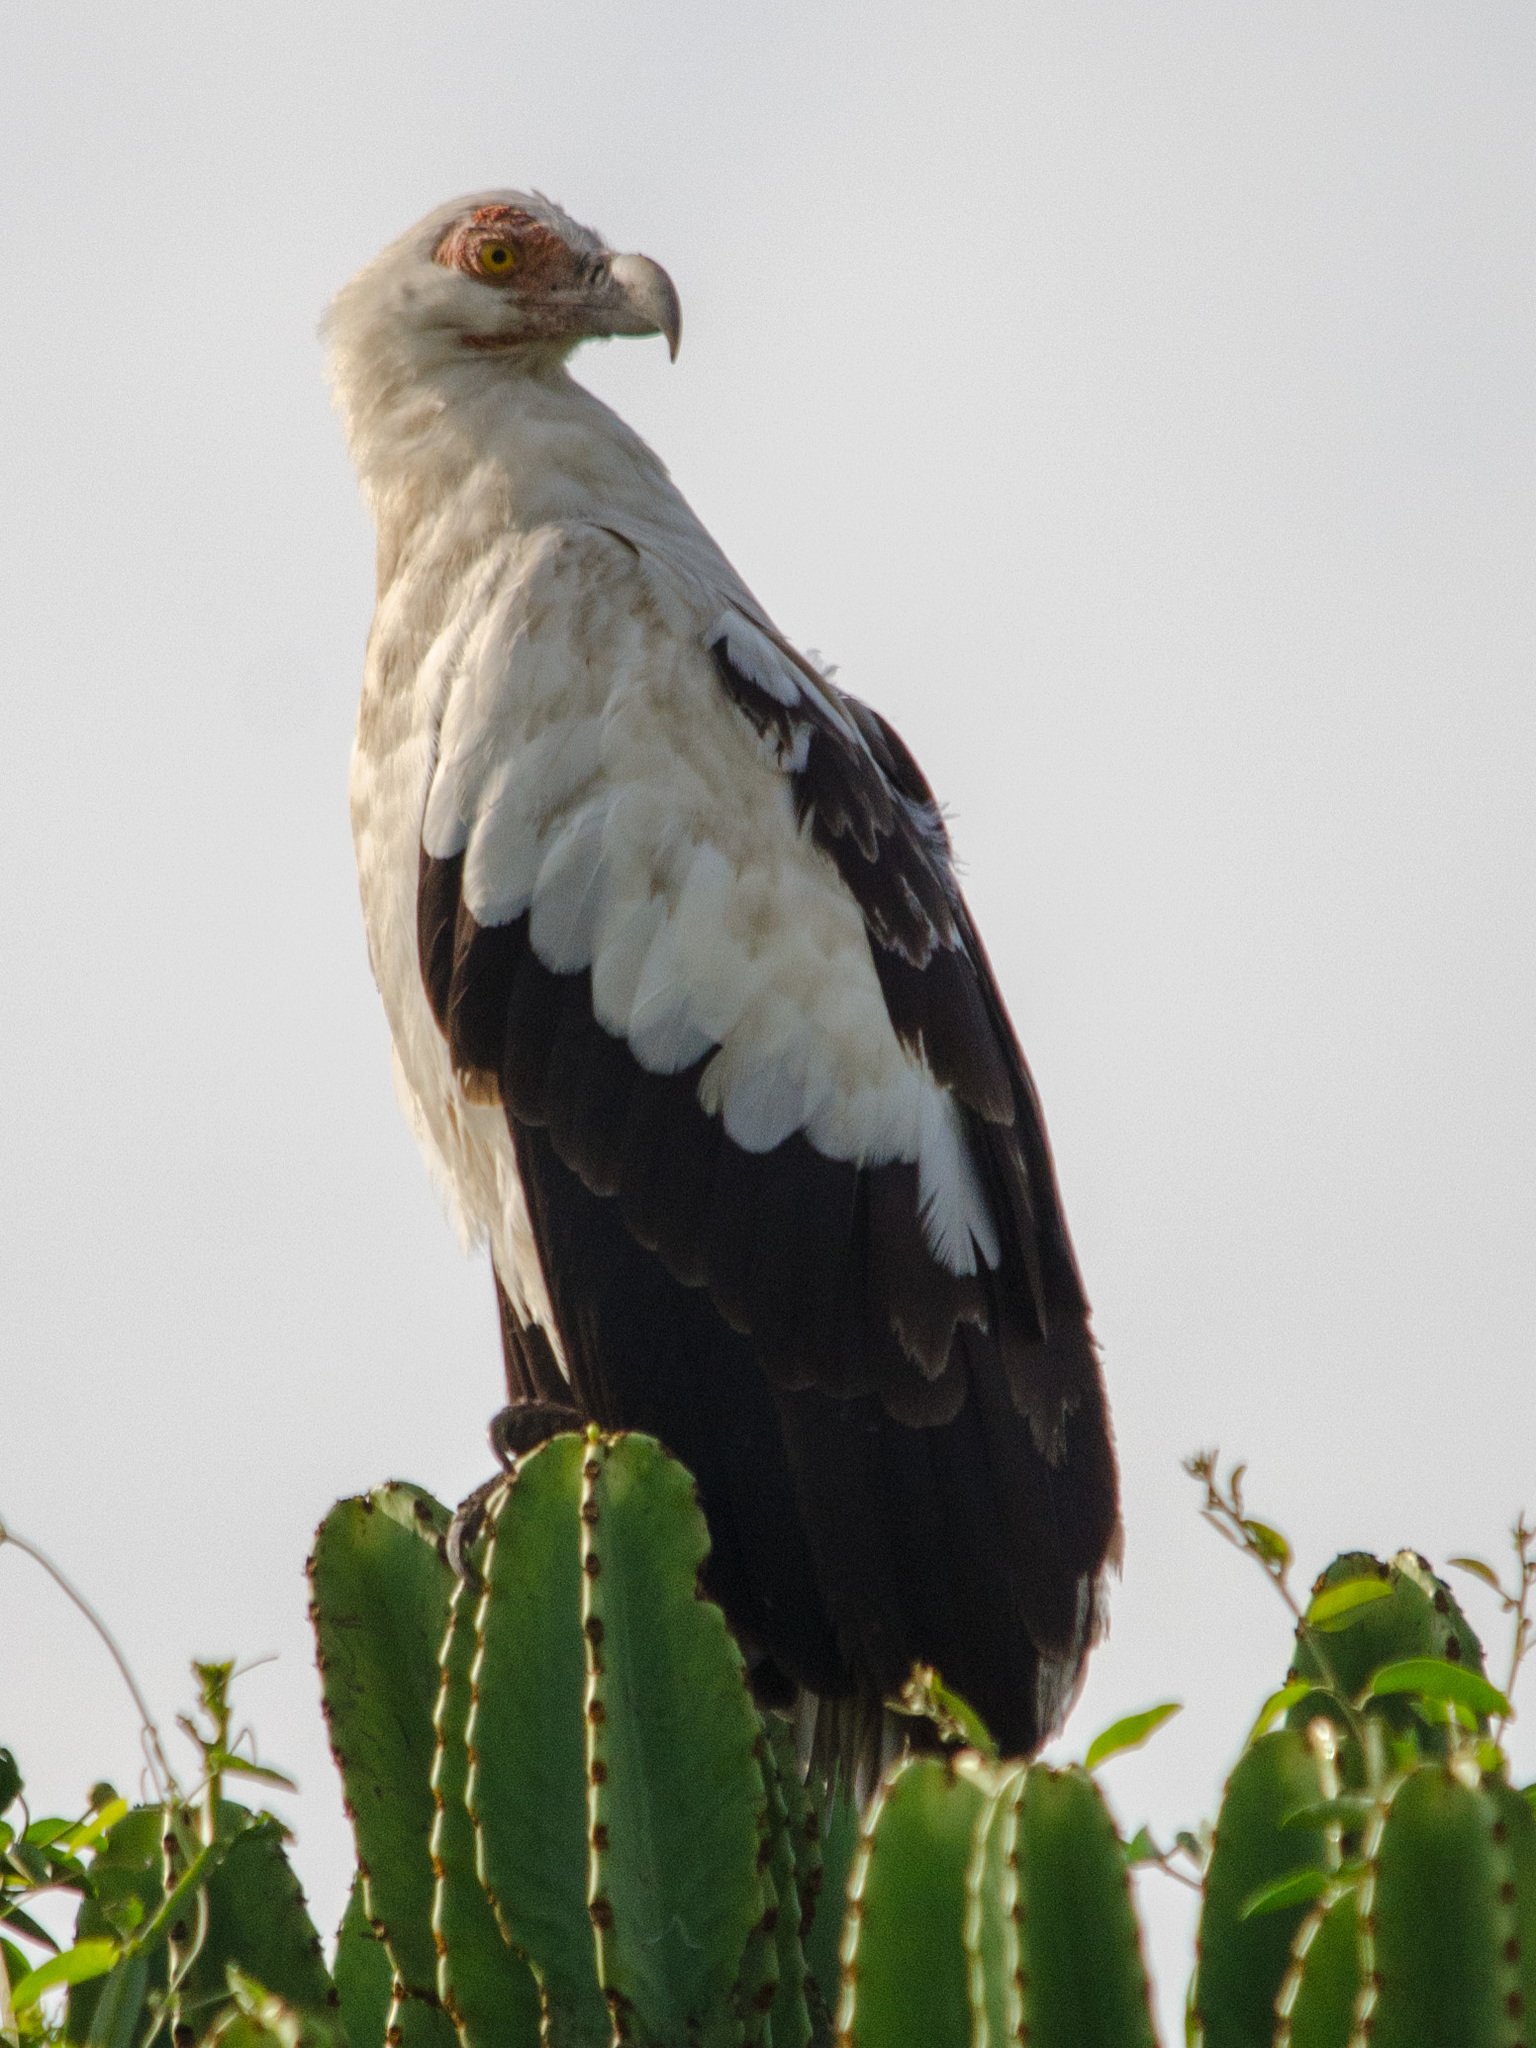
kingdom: Animalia
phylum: Chordata
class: Aves
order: Accipitriformes
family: Accipitridae
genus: Gypohierax
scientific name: Gypohierax angolensis
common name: Palm-nut vulture
